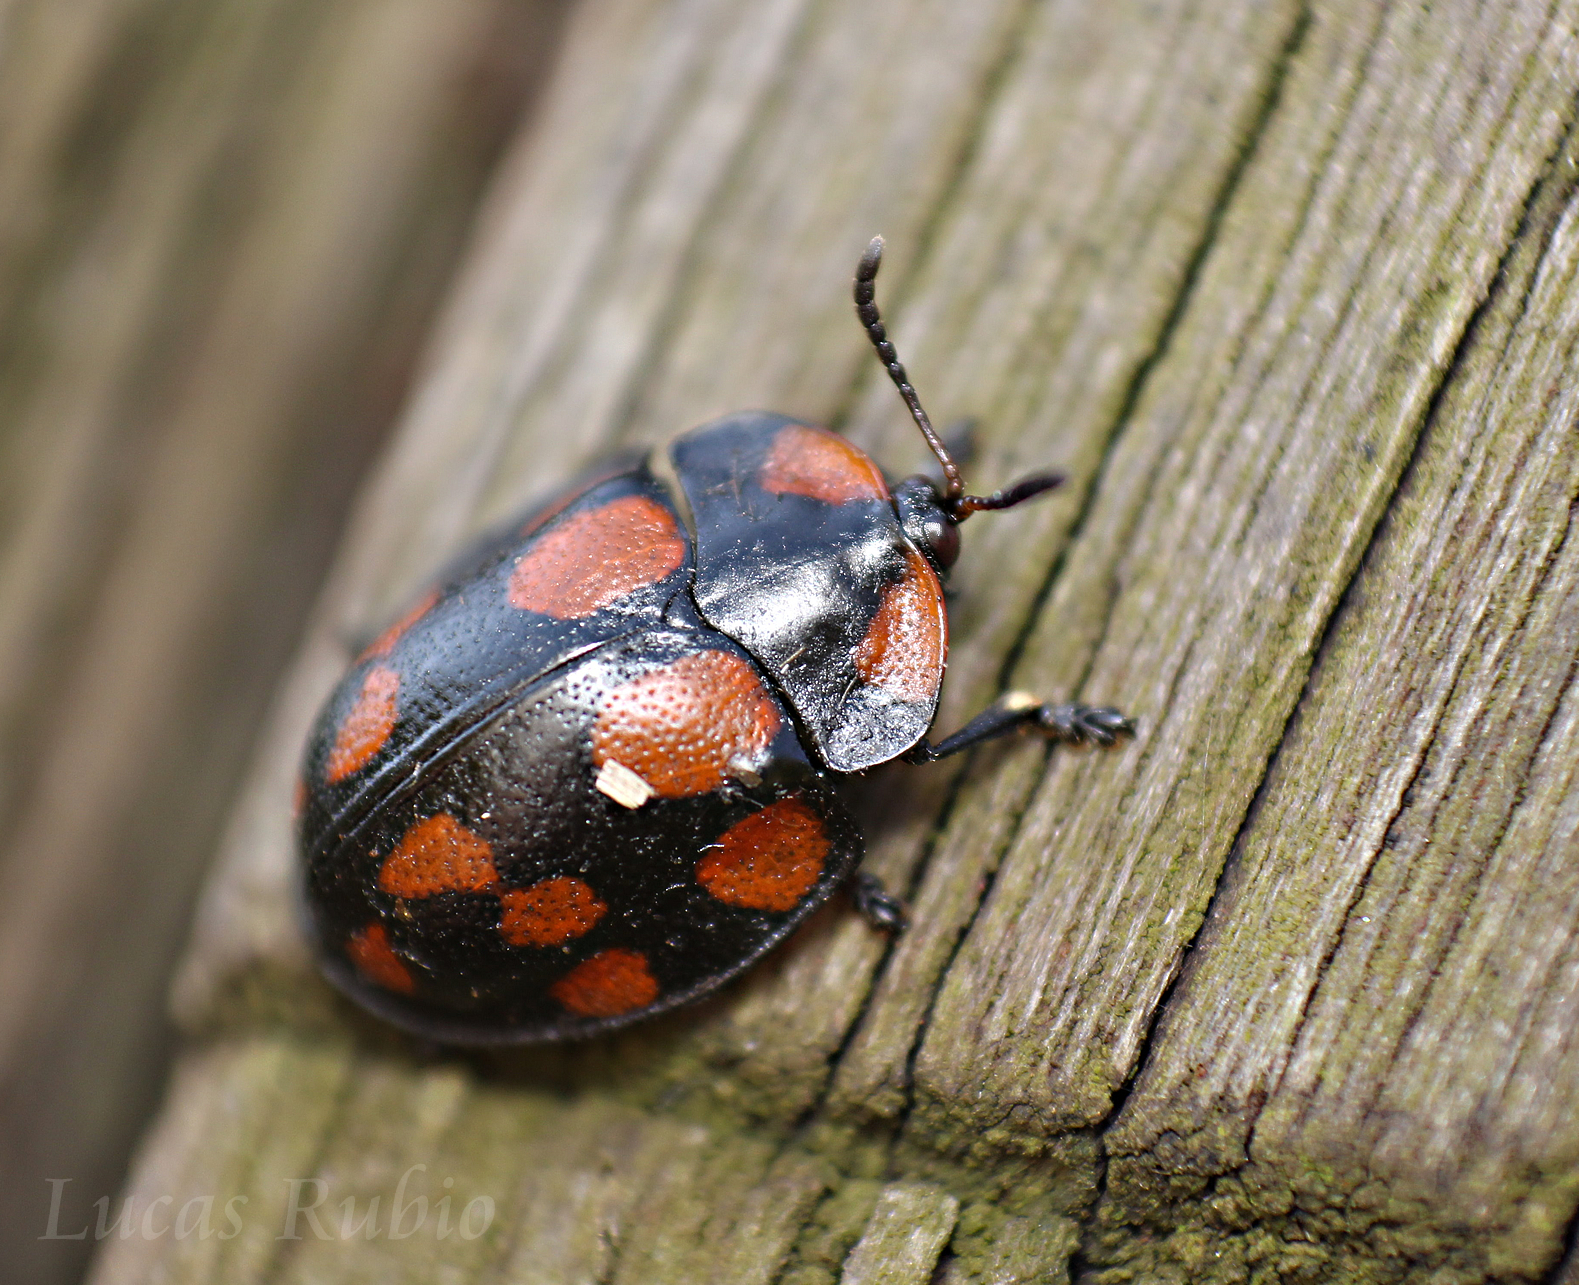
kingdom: Animalia
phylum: Arthropoda
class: Insecta
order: Coleoptera
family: Chrysomelidae
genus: Botanochara
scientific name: Botanochara duodecimverrucata
